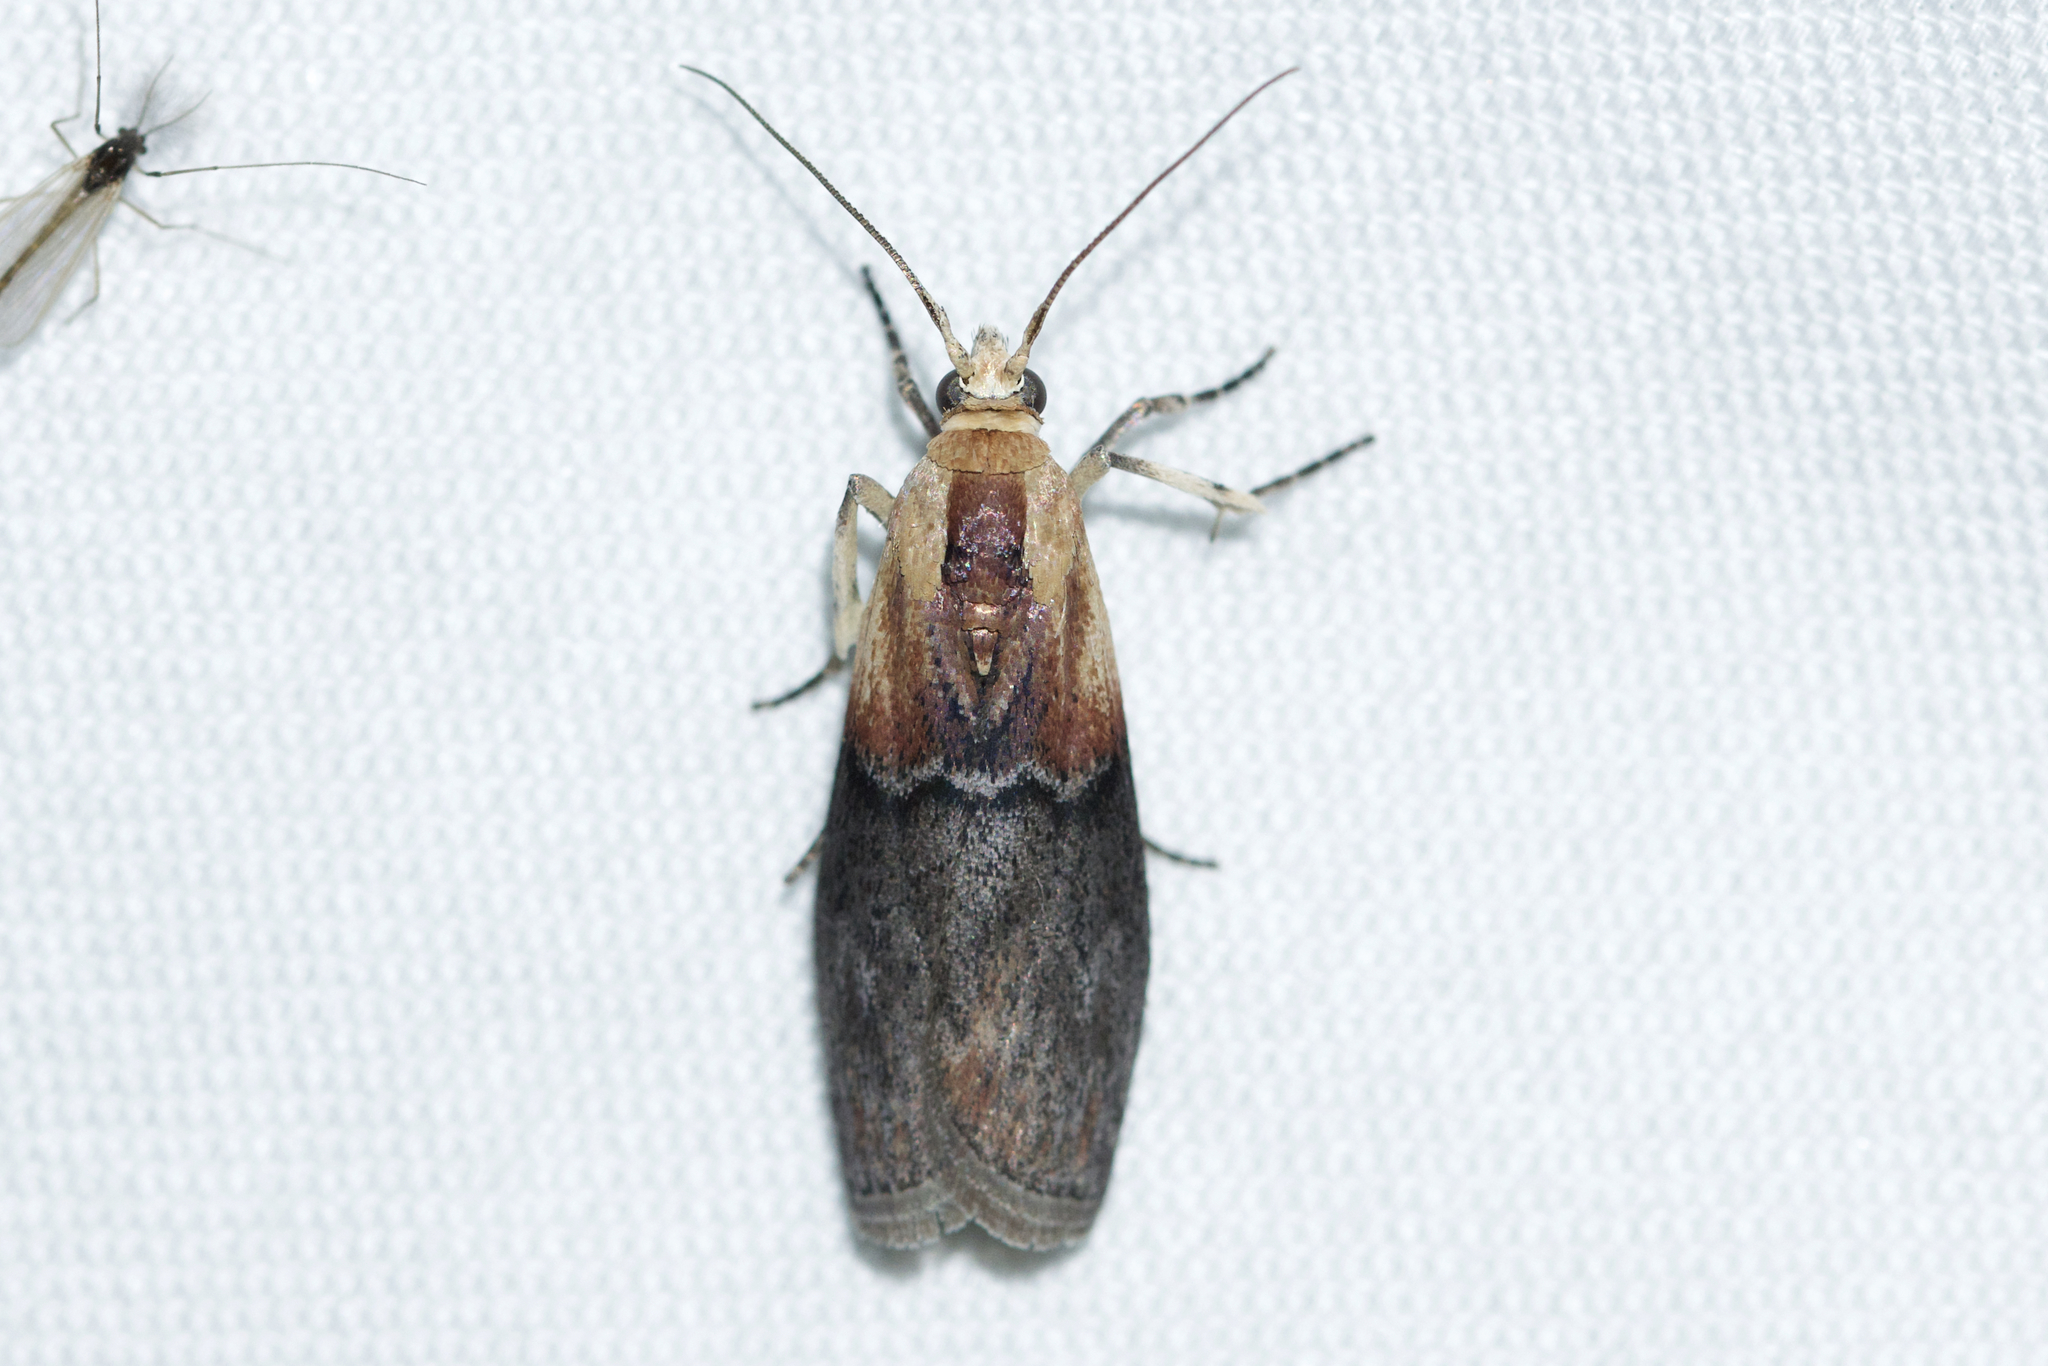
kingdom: Animalia
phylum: Arthropoda
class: Insecta
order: Lepidoptera
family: Pyralidae
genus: Sciota
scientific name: Sciota basilaris
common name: Yellow-shouldered leafroller
